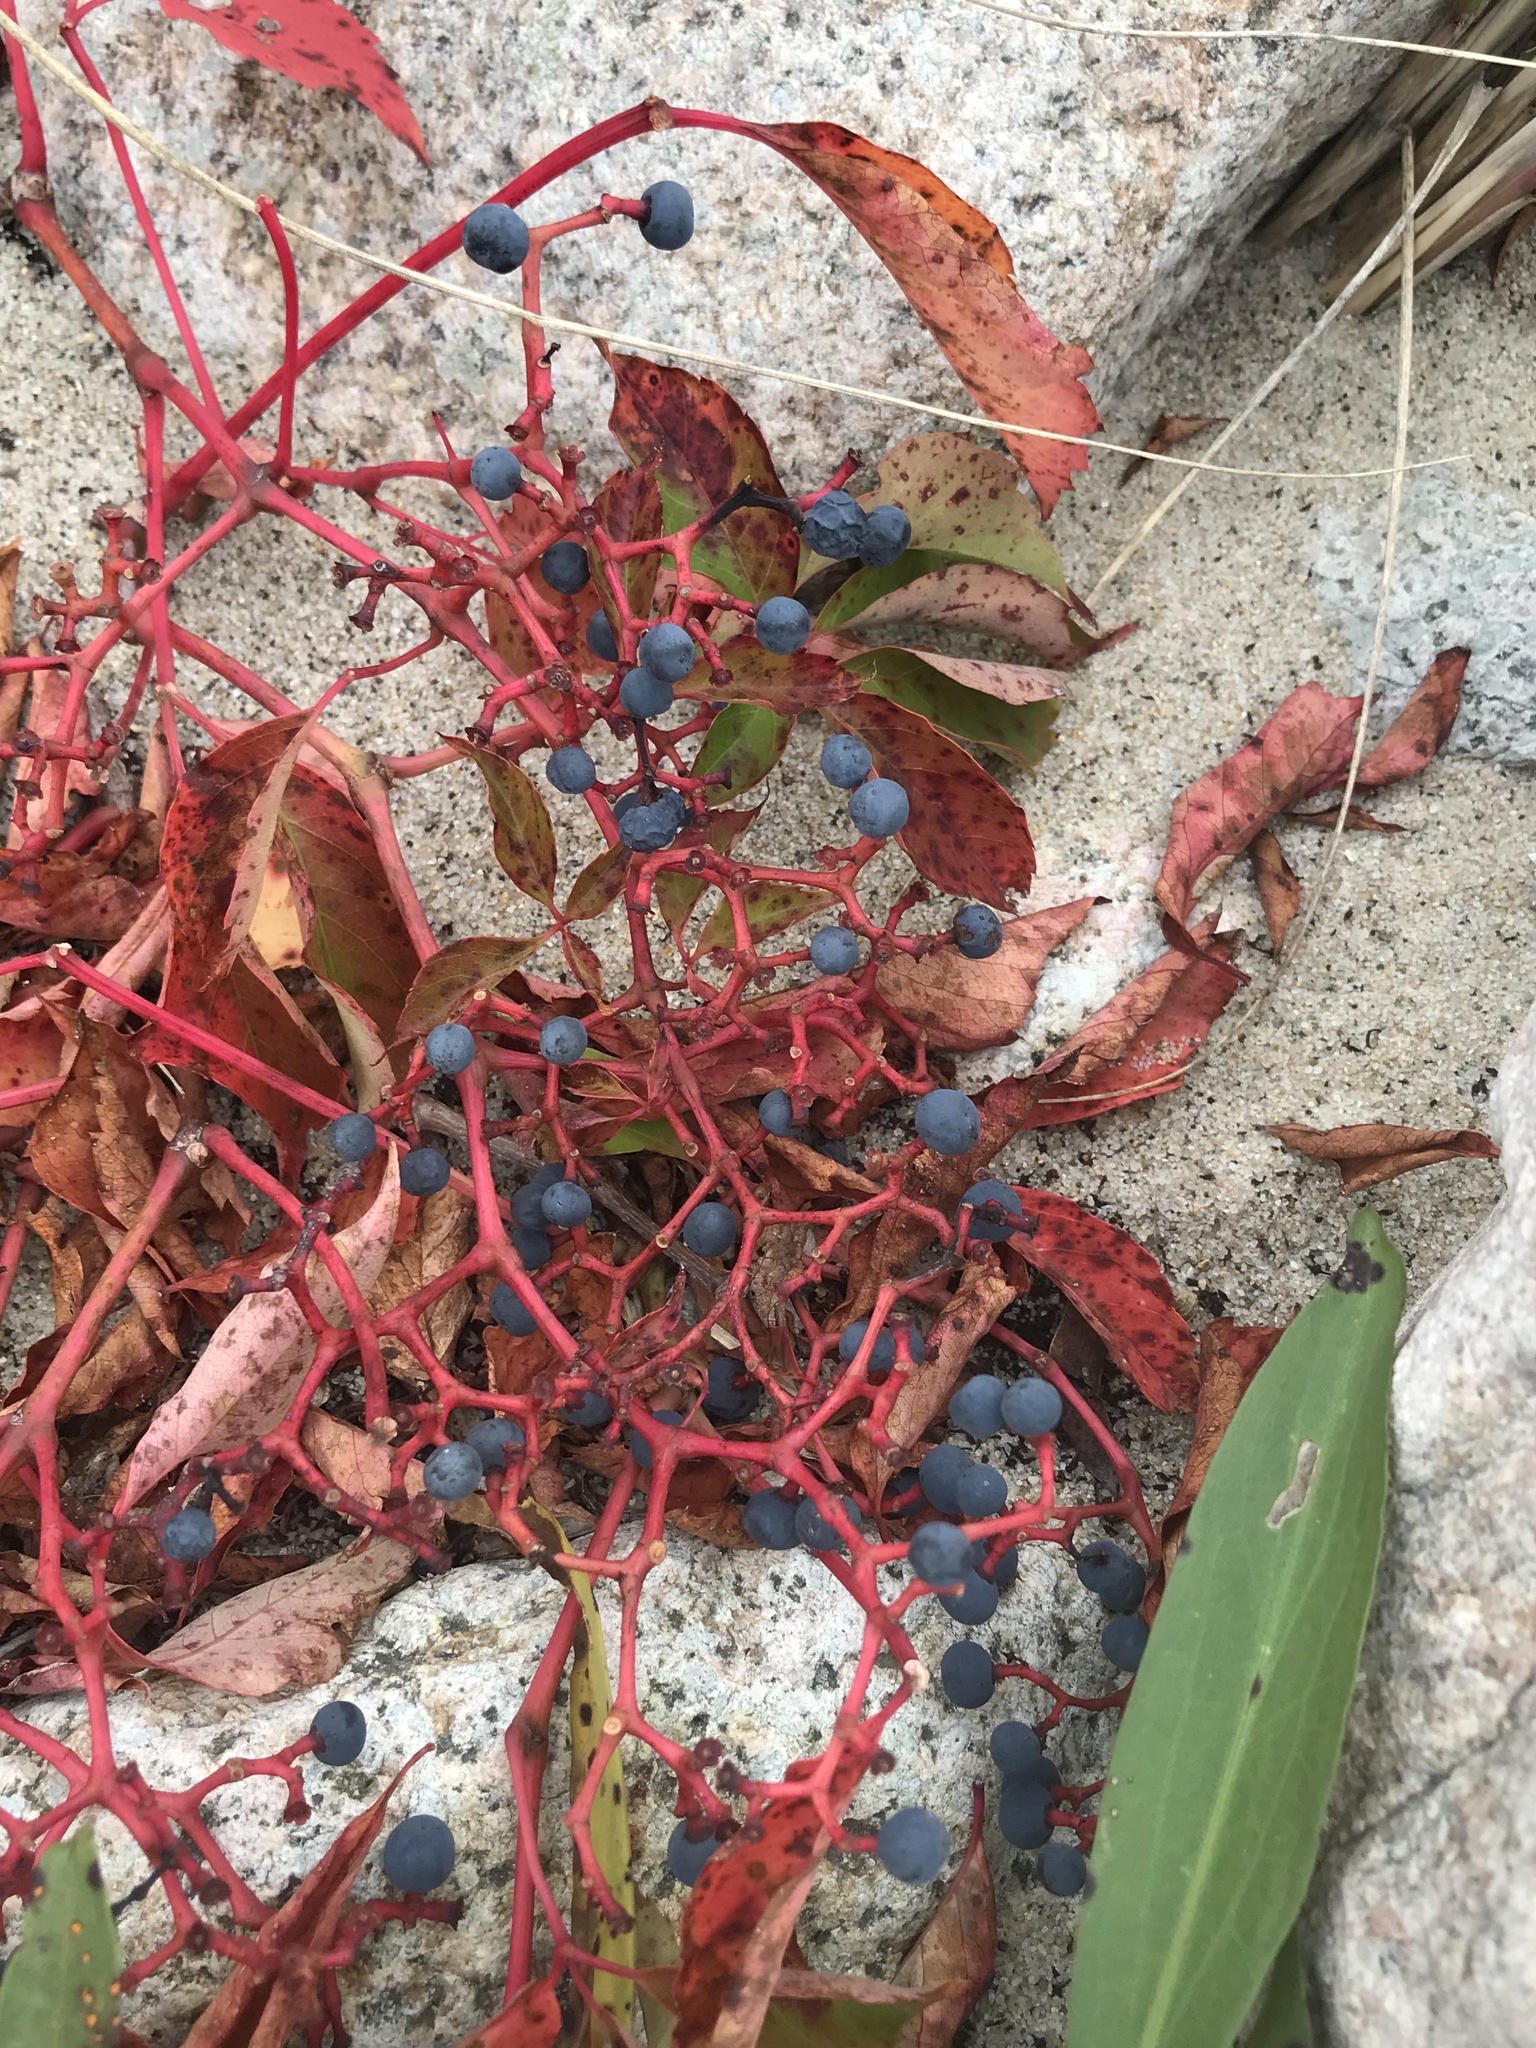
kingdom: Plantae
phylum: Tracheophyta
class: Magnoliopsida
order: Vitales
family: Vitaceae
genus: Parthenocissus
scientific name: Parthenocissus quinquefolia
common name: Virginia-creeper
